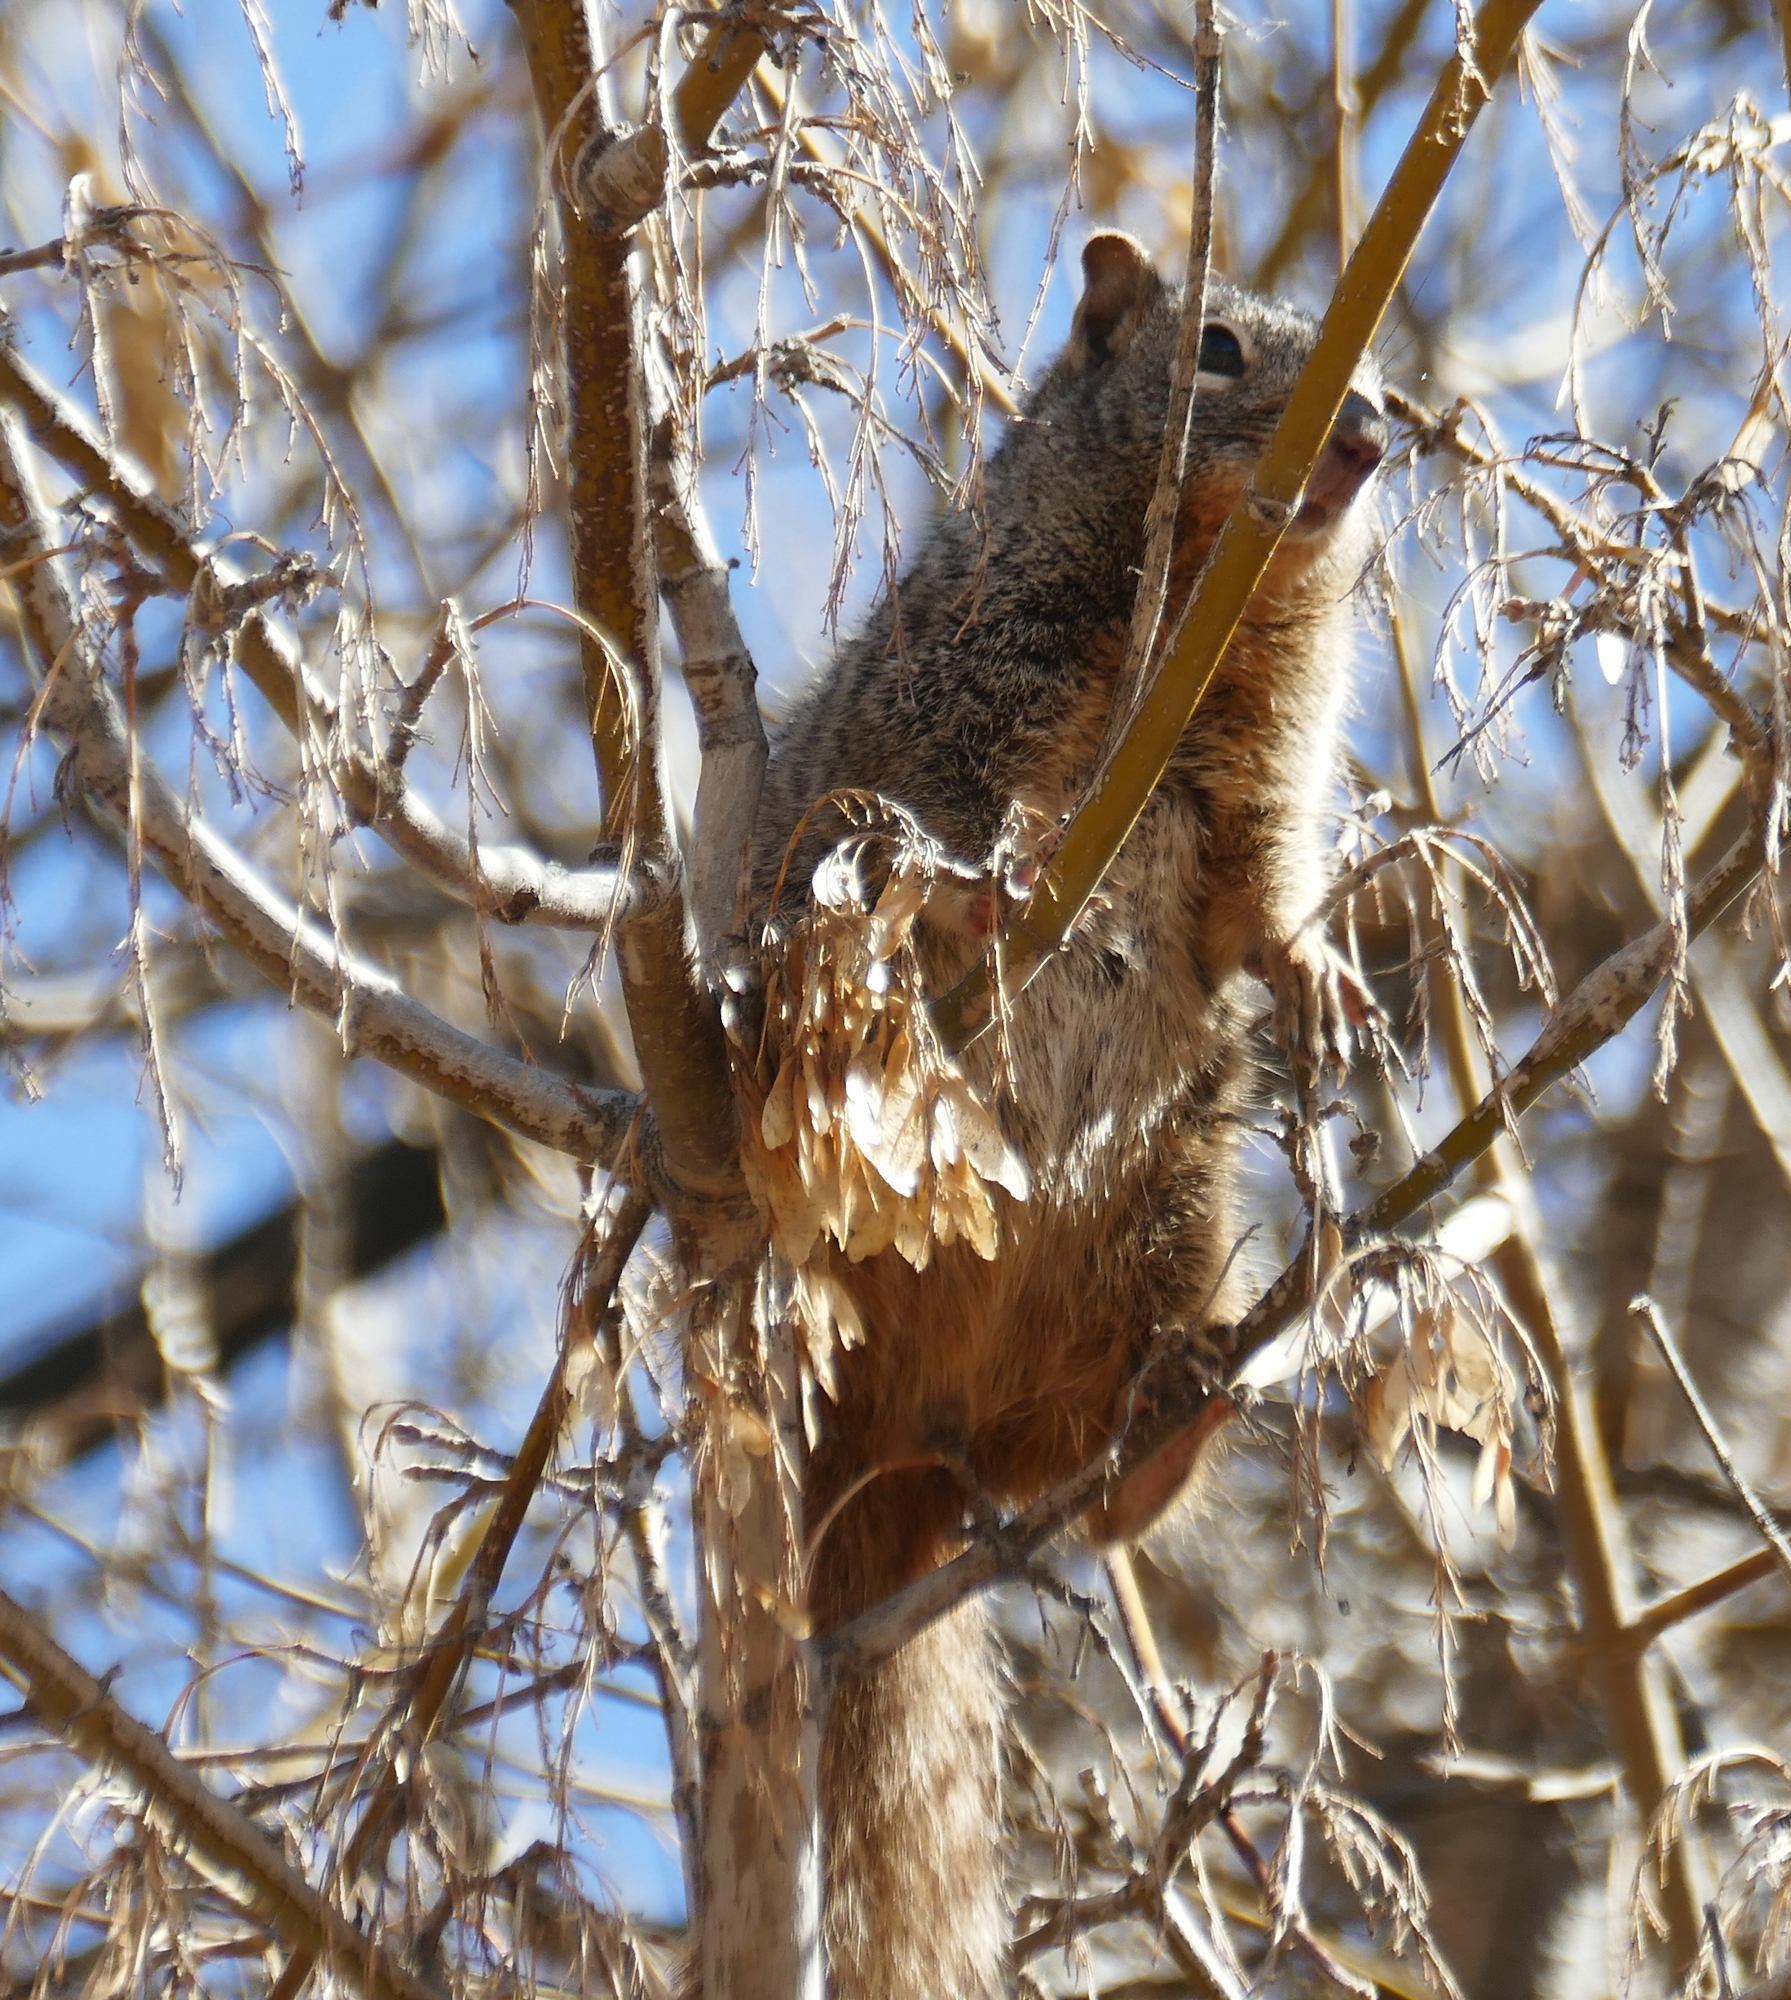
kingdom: Animalia
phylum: Chordata
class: Mammalia
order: Rodentia
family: Sciuridae
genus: Otospermophilus
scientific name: Otospermophilus variegatus
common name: Rock squirrel
